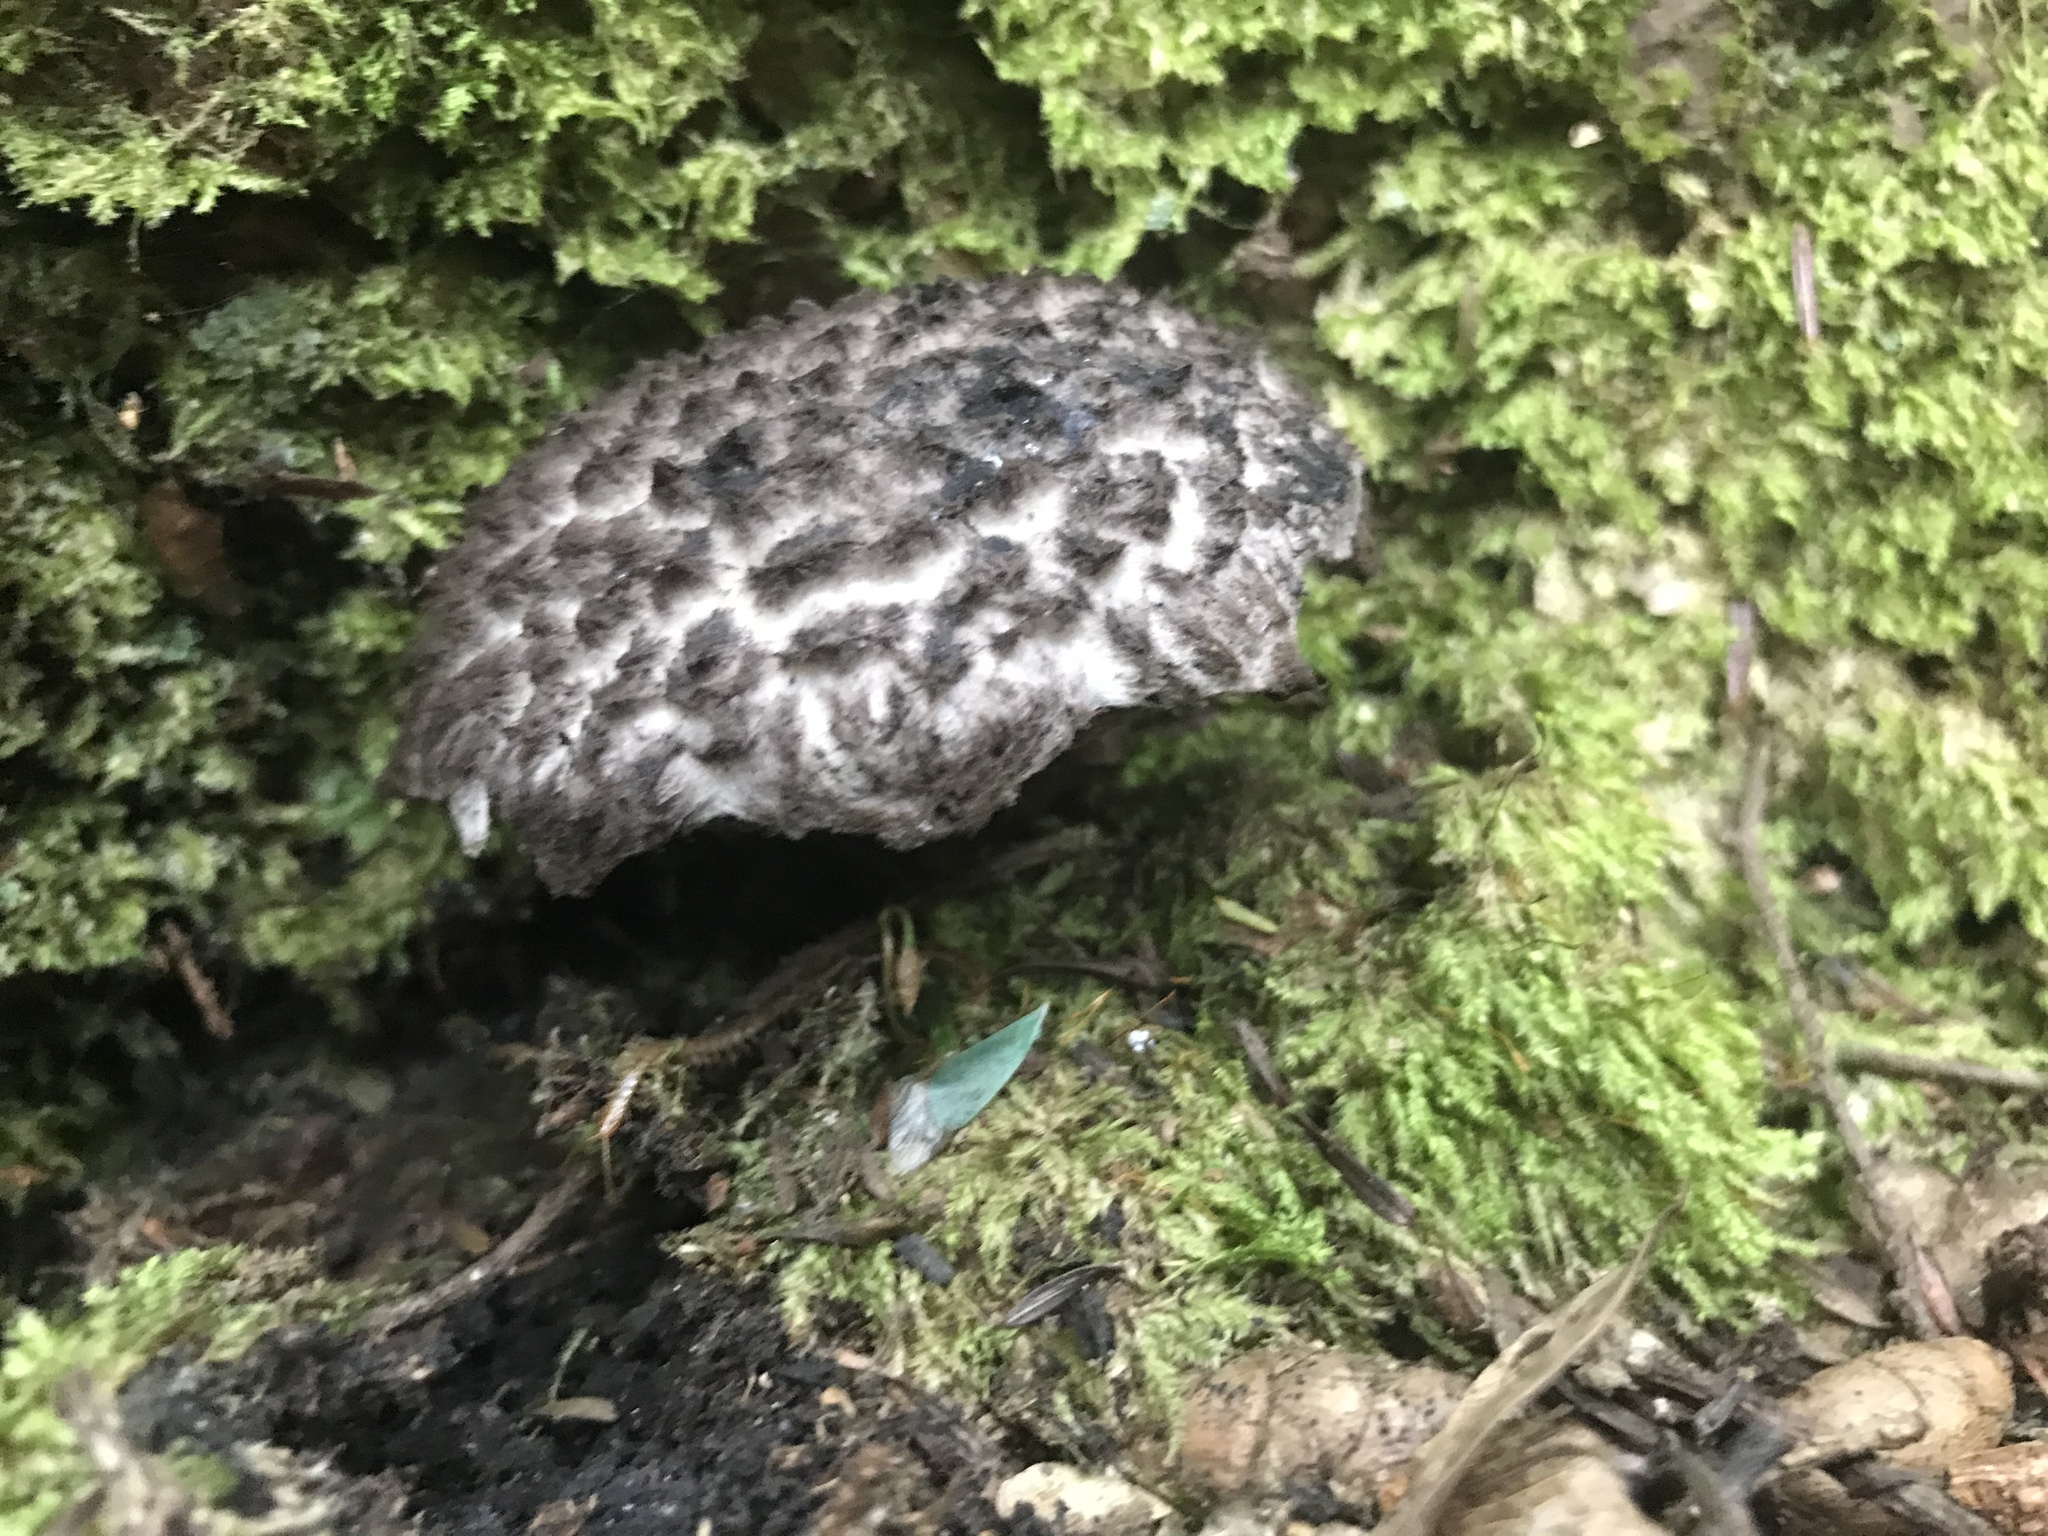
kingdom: Fungi
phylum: Basidiomycota
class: Agaricomycetes
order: Boletales
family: Boletaceae
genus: Strobilomyces
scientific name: Strobilomyces strobilaceus
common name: Old man of the woods
